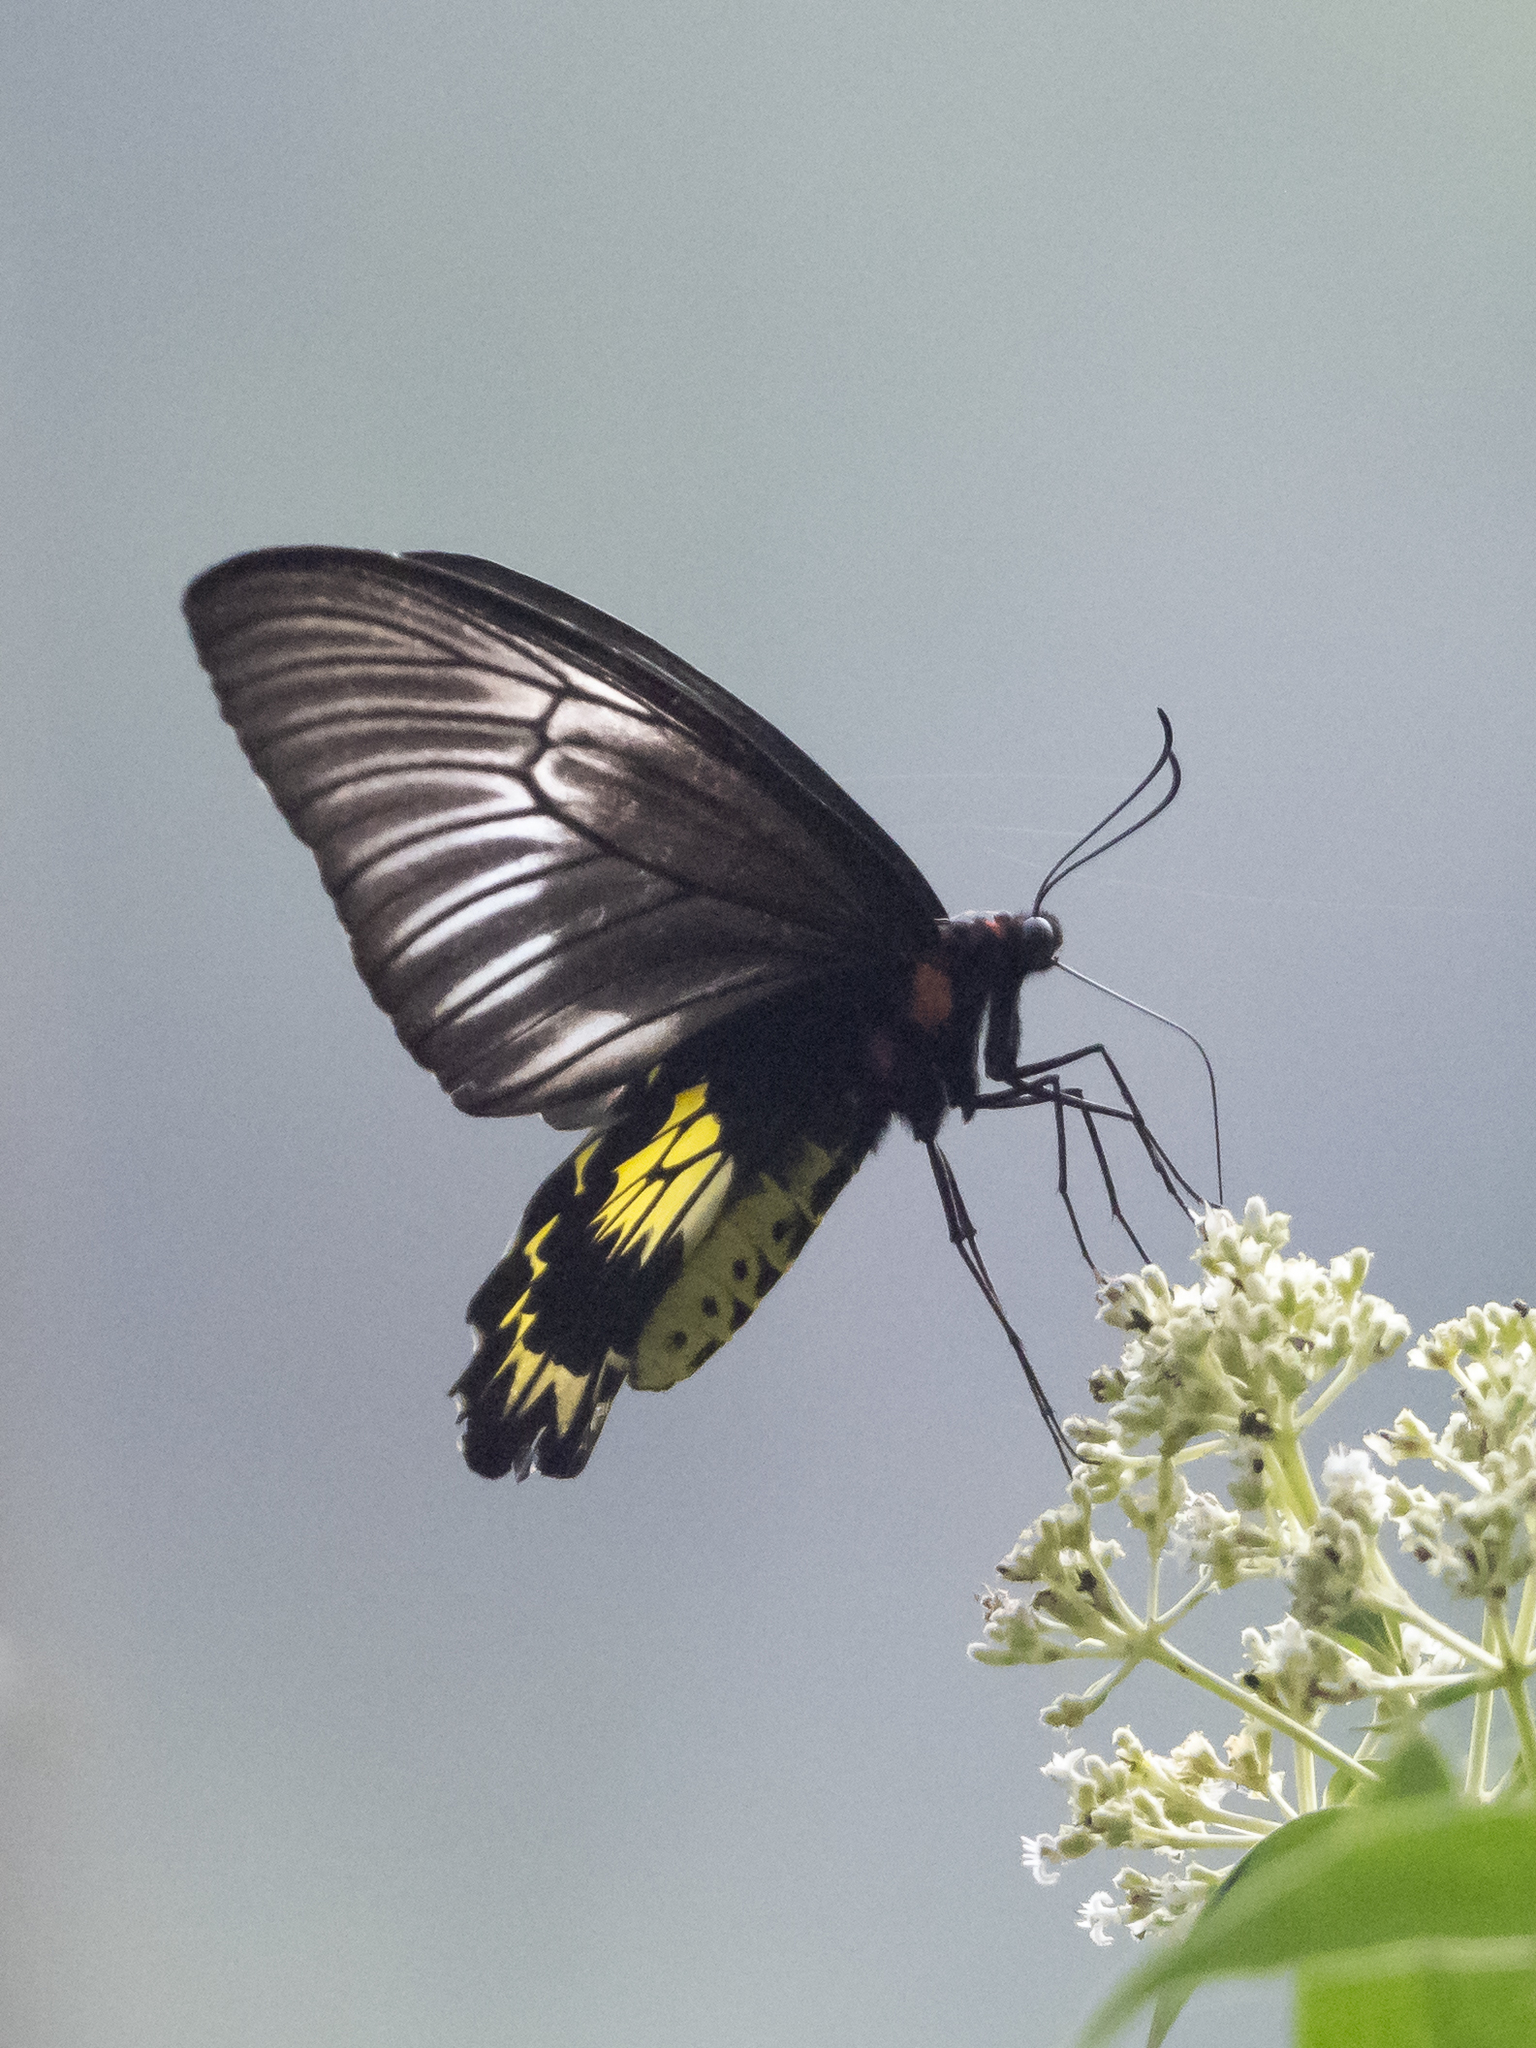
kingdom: Animalia
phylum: Arthropoda
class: Insecta
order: Lepidoptera
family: Papilionidae
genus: Troides
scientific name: Troides darsius
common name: Sri lankan birdwing
